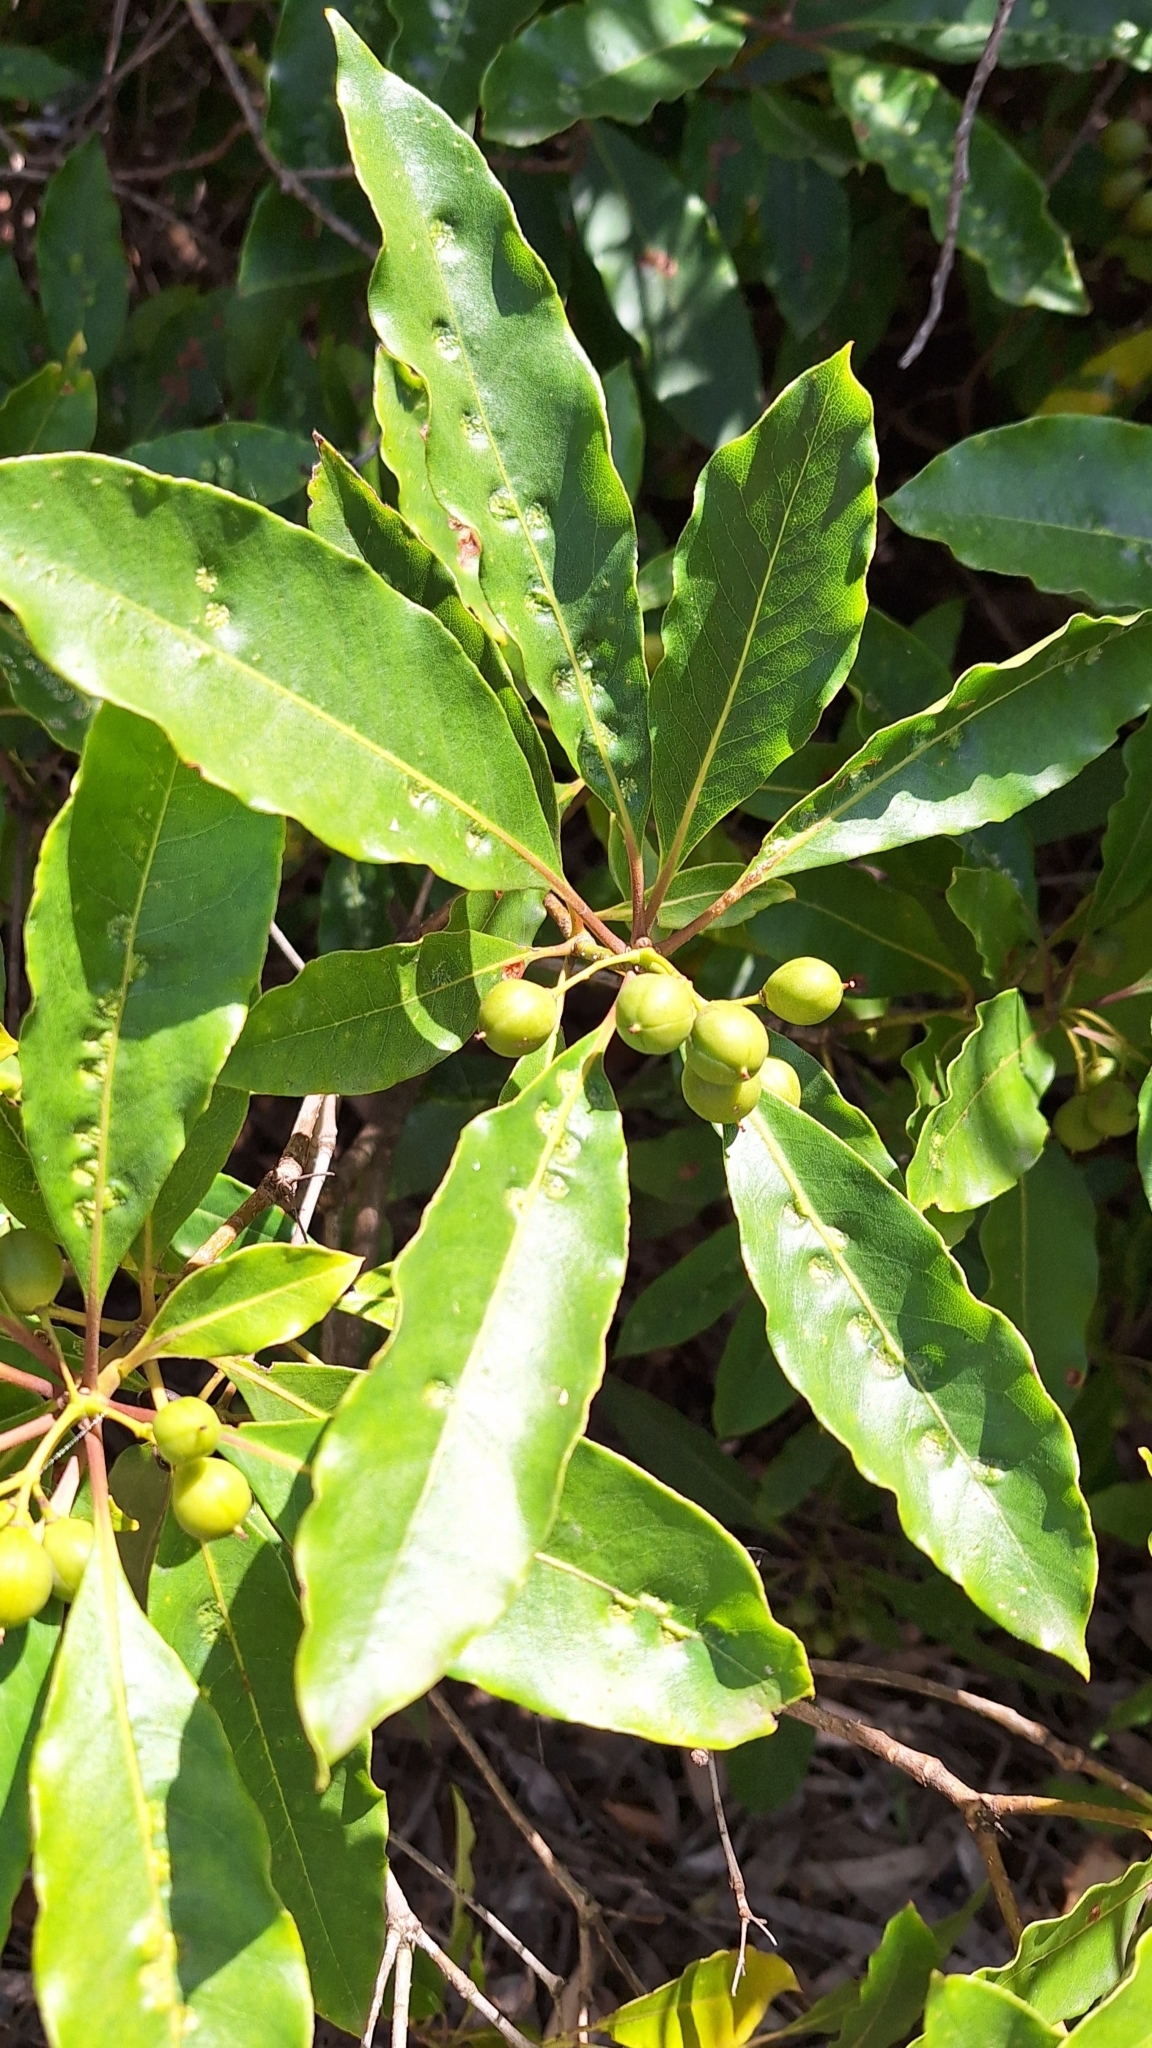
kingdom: Animalia
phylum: Arthropoda
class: Insecta
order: Diptera
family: Agromyzidae
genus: Phytoliriomyza
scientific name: Phytoliriomyza pittosporophylli
